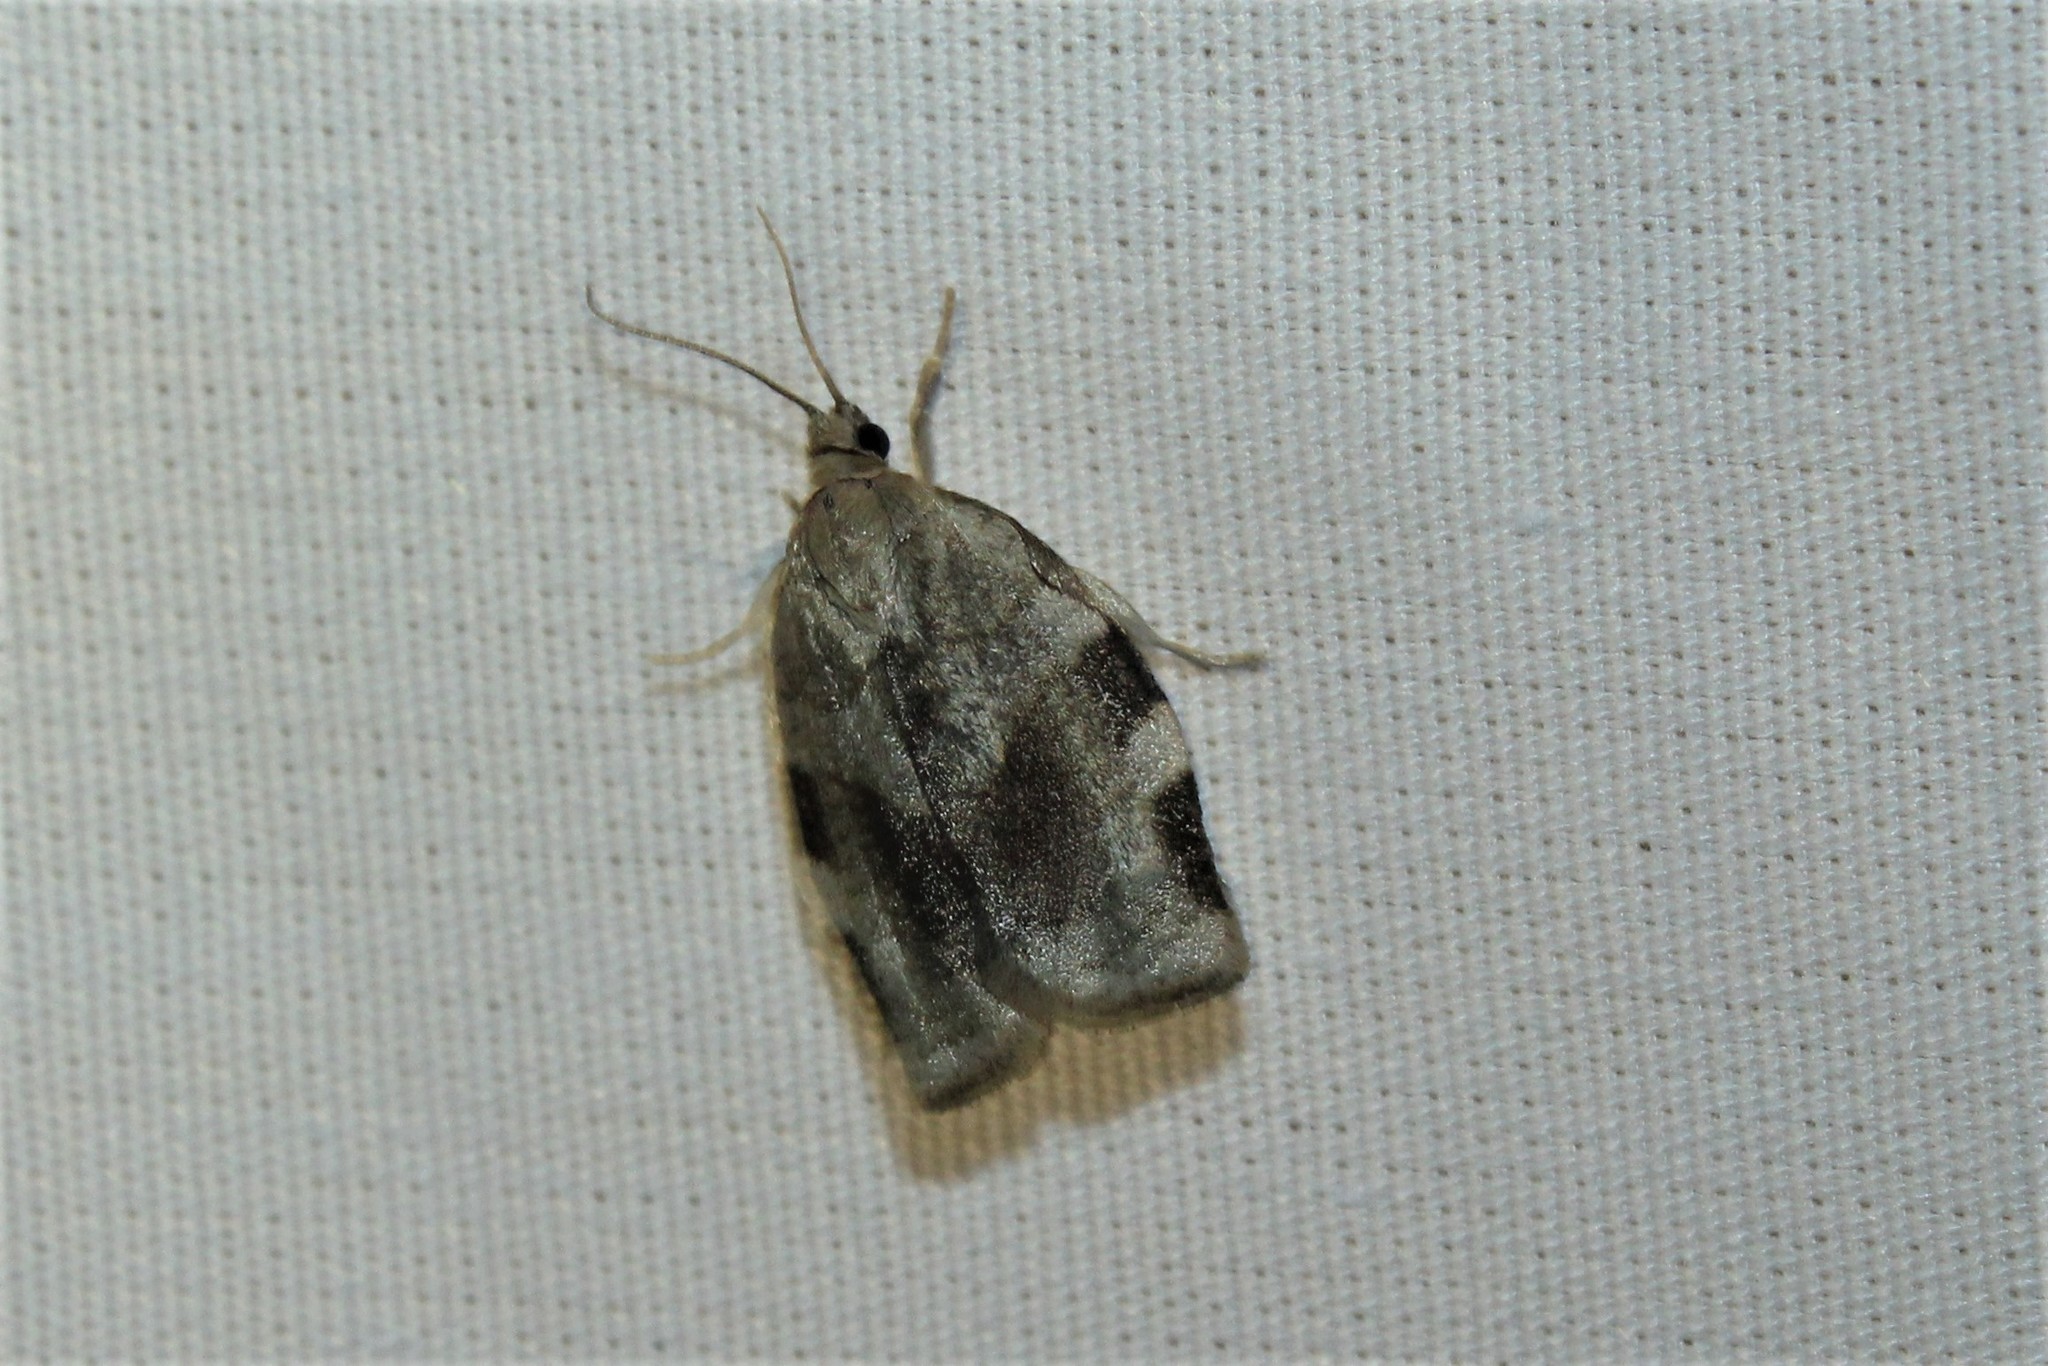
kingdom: Animalia
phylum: Arthropoda
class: Insecta
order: Lepidoptera
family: Tortricidae
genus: Choristoneura
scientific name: Choristoneura fractivittana
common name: Broken-banded leafroller moth
